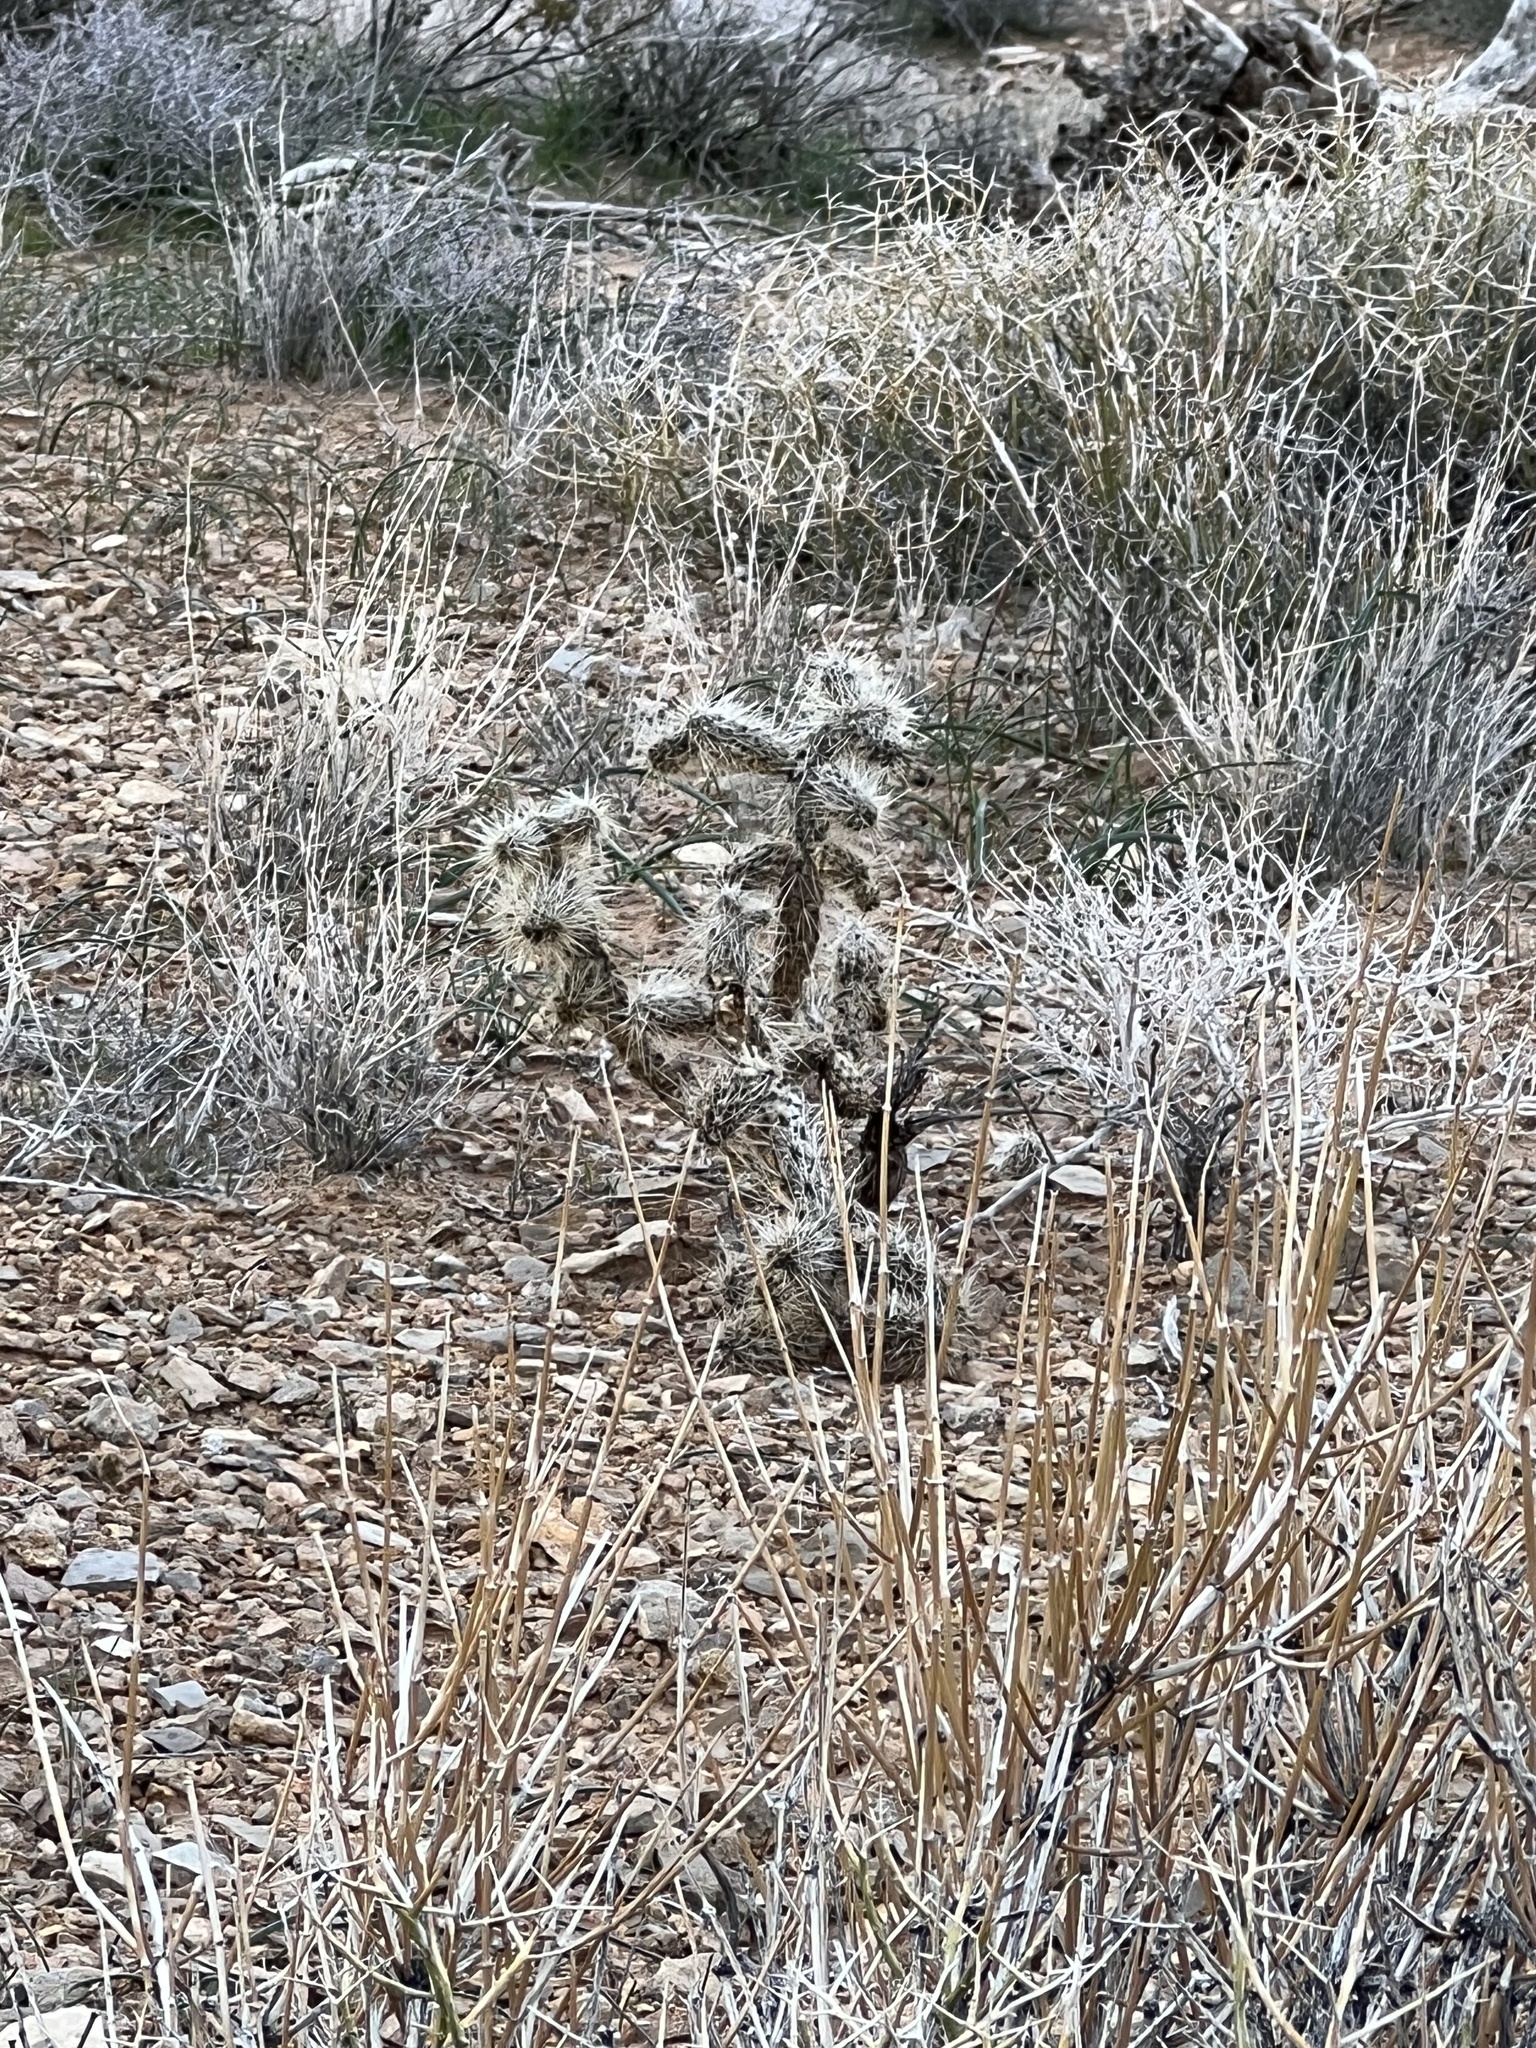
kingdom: Plantae
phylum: Tracheophyta
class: Magnoliopsida
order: Caryophyllales
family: Cactaceae
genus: Cylindropuntia
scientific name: Cylindropuntia echinocarpa
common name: Ground cholla
